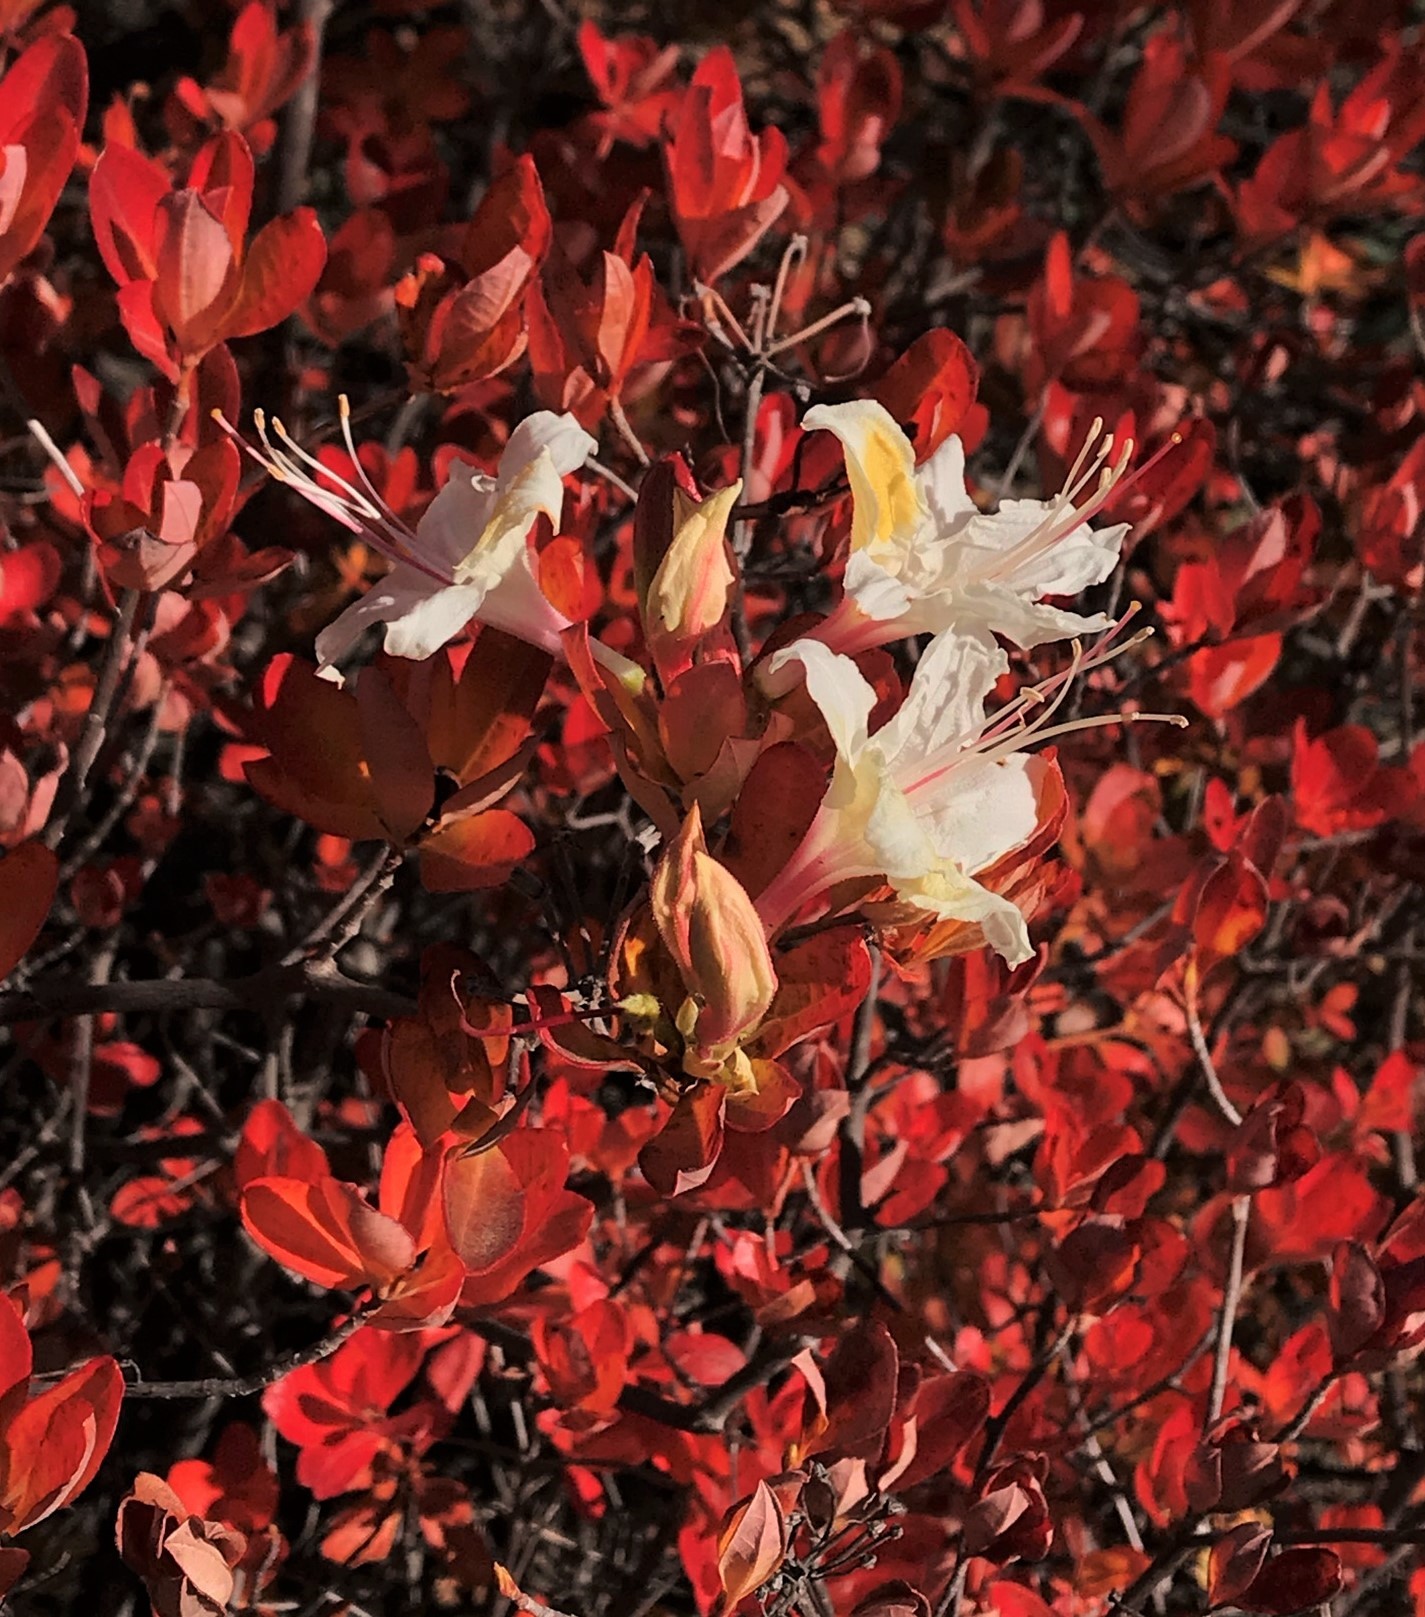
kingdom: Plantae
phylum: Tracheophyta
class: Magnoliopsida
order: Ericales
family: Ericaceae
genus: Rhododendron
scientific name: Rhododendron occidentale
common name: Western azalea
